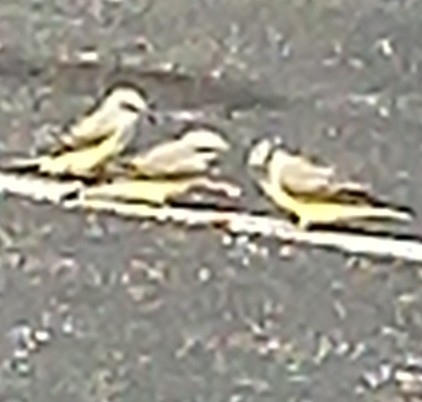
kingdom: Animalia
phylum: Chordata
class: Aves
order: Passeriformes
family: Tyrannidae
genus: Tyrannus
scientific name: Tyrannus verticalis
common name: Western kingbird
